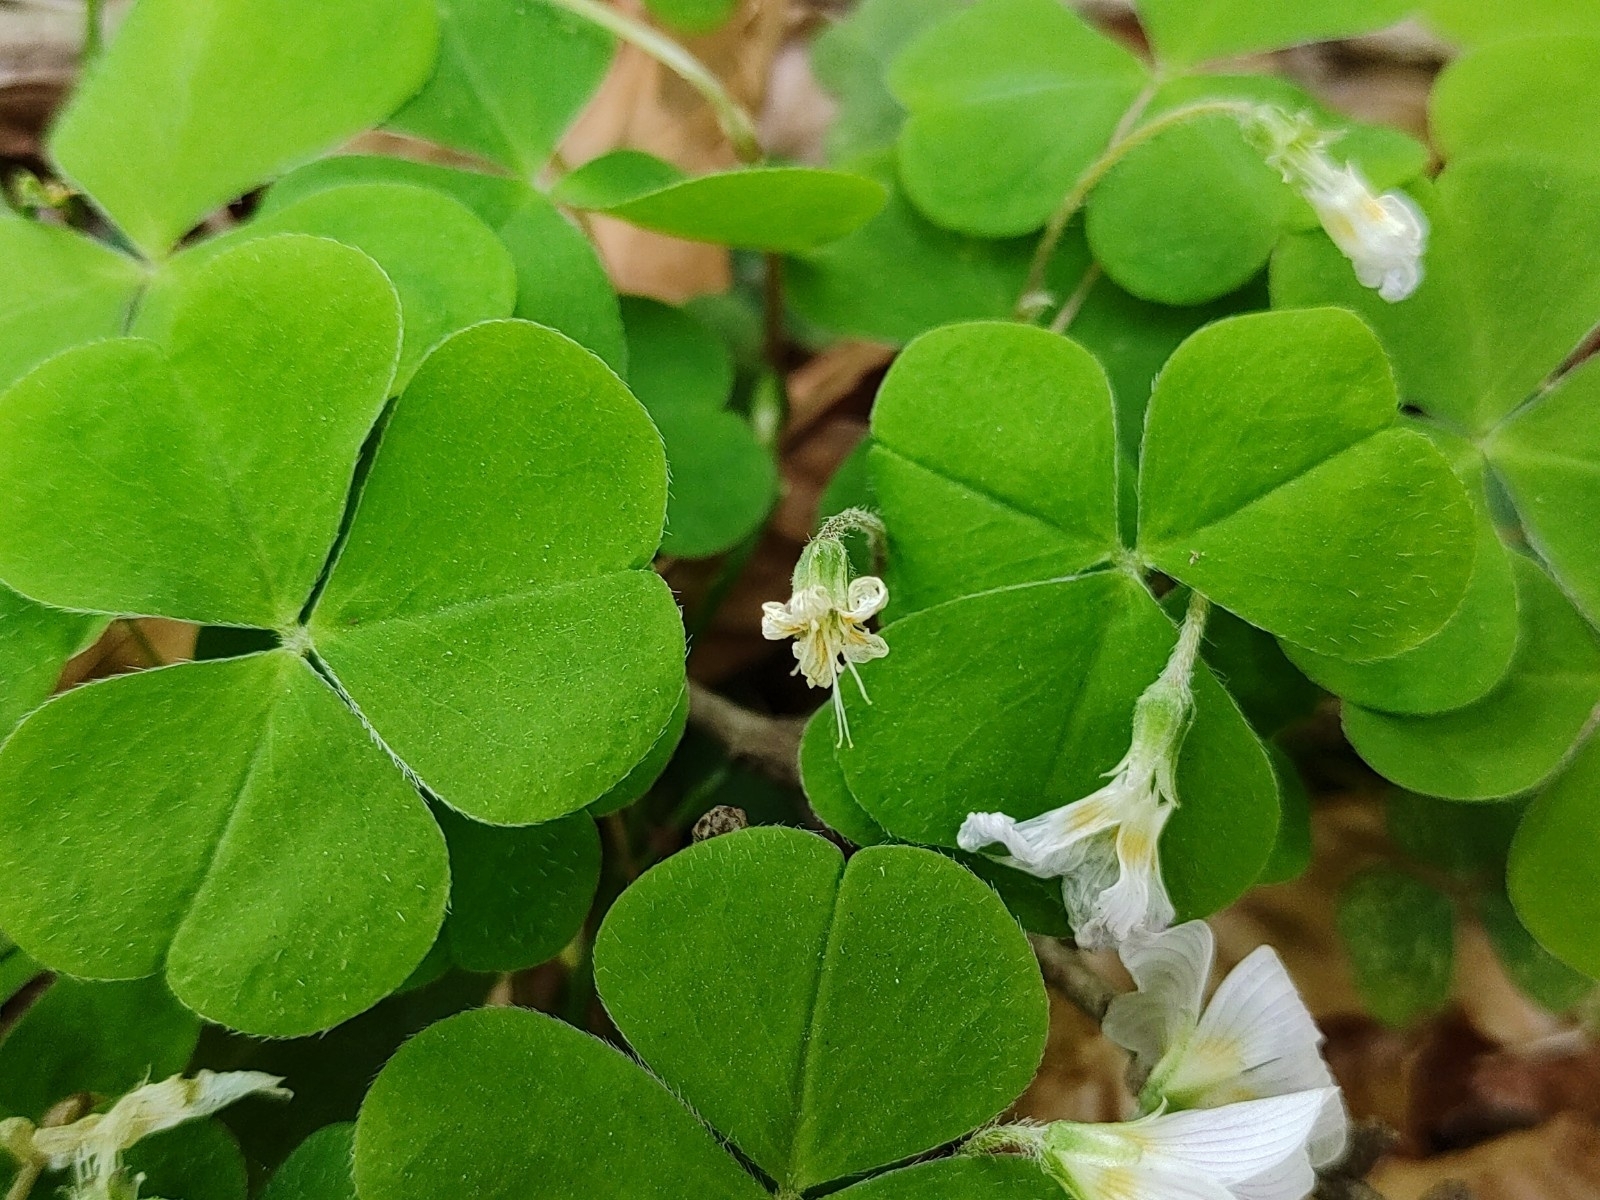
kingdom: Plantae
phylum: Tracheophyta
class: Magnoliopsida
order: Oxalidales
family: Oxalidaceae
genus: Oxalis
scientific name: Oxalis acetosella
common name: Wood-sorrel
